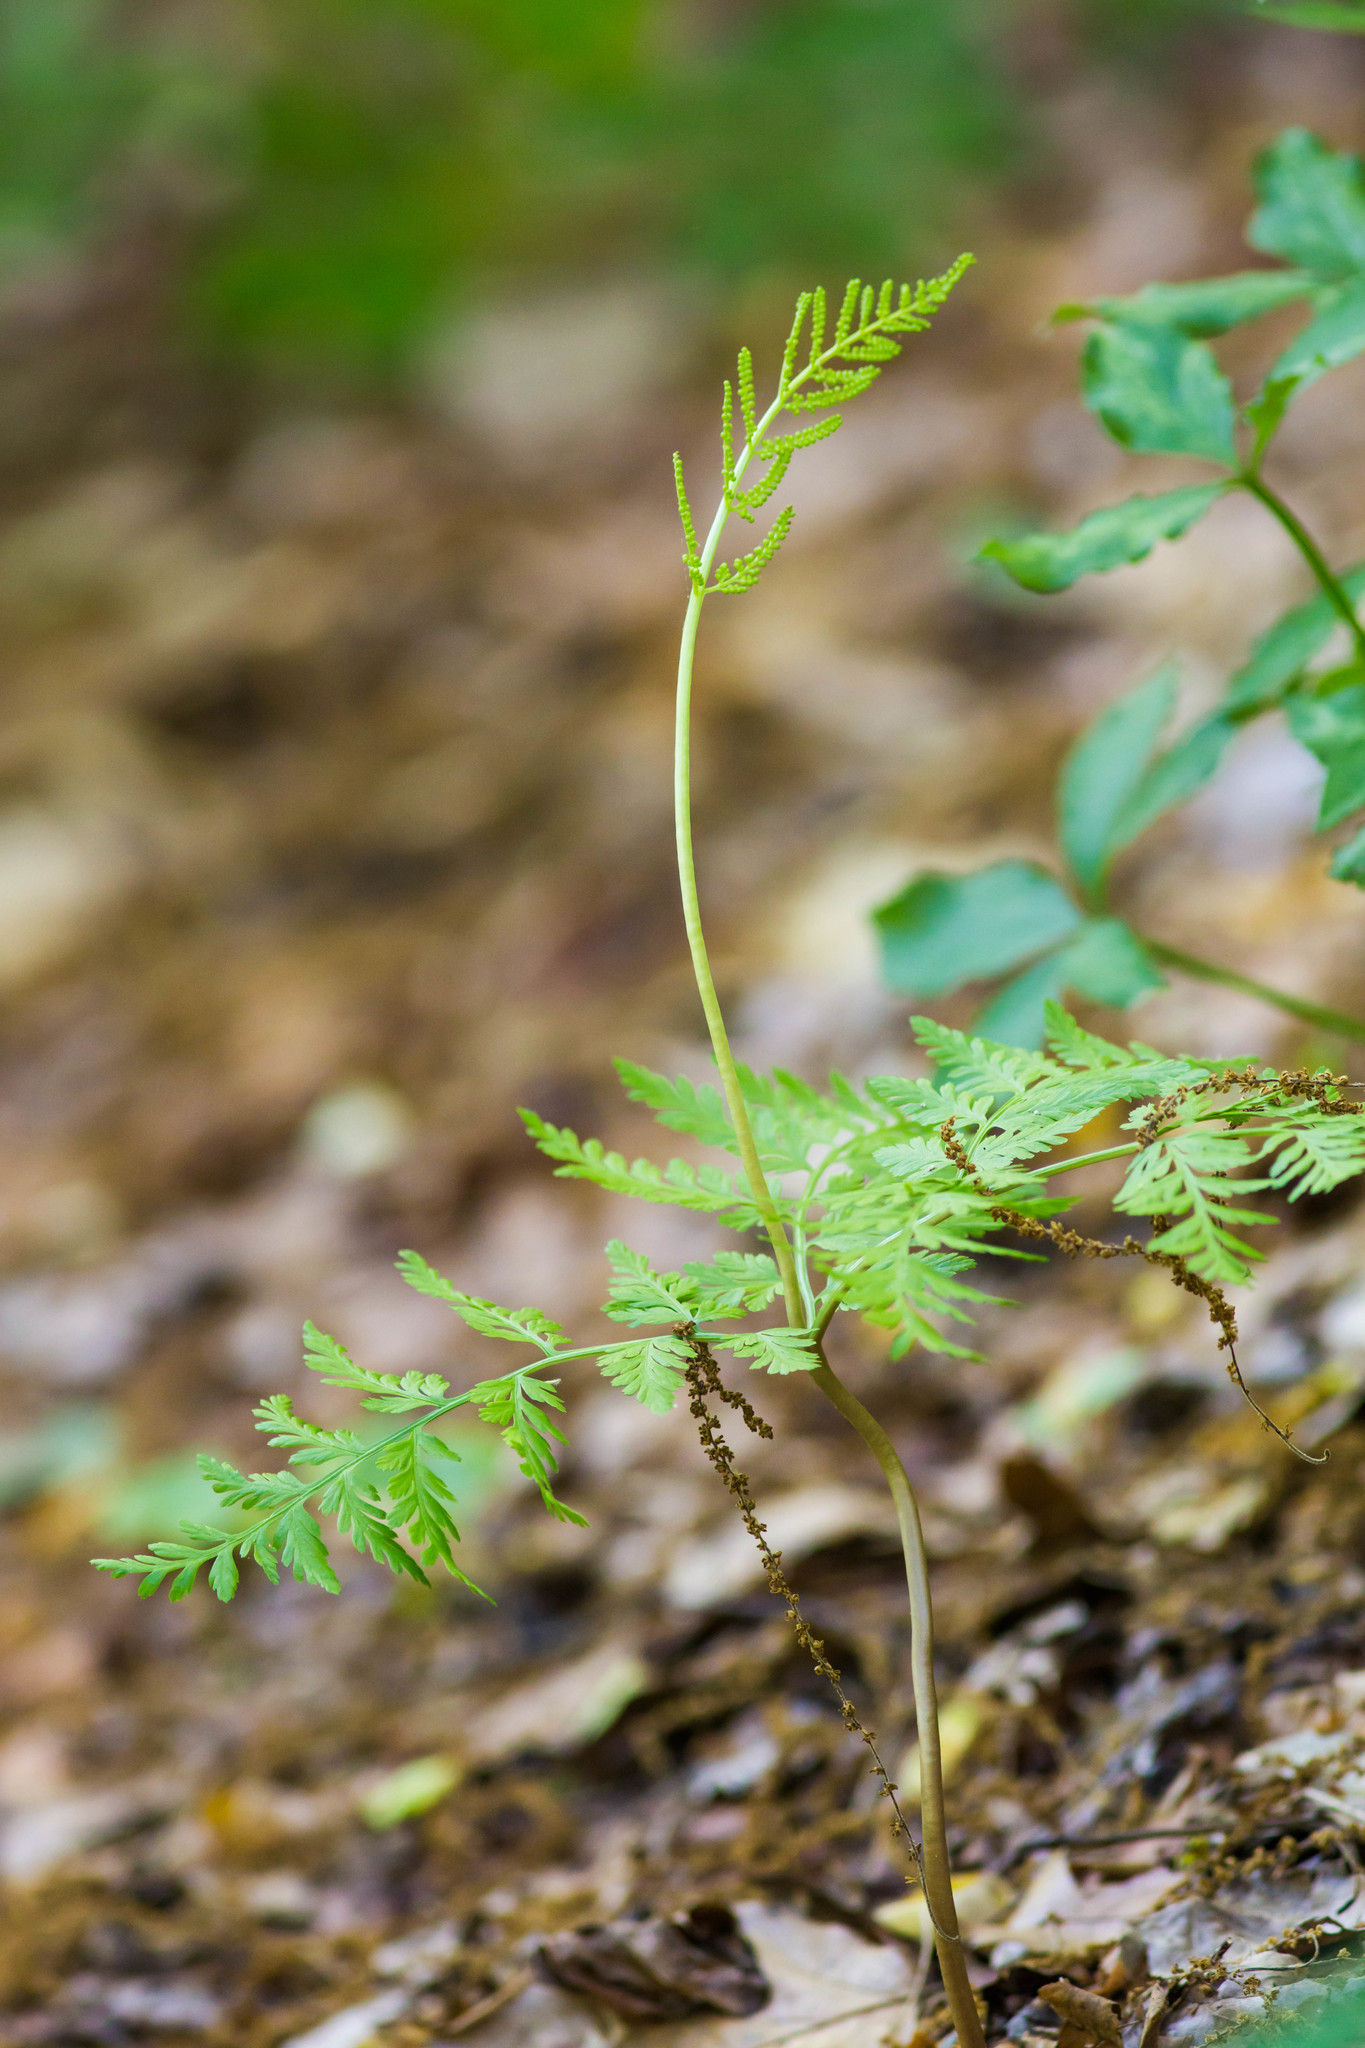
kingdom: Plantae
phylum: Tracheophyta
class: Polypodiopsida
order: Ophioglossales
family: Ophioglossaceae
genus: Botrypus
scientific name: Botrypus virginianus
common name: Common grapefern
